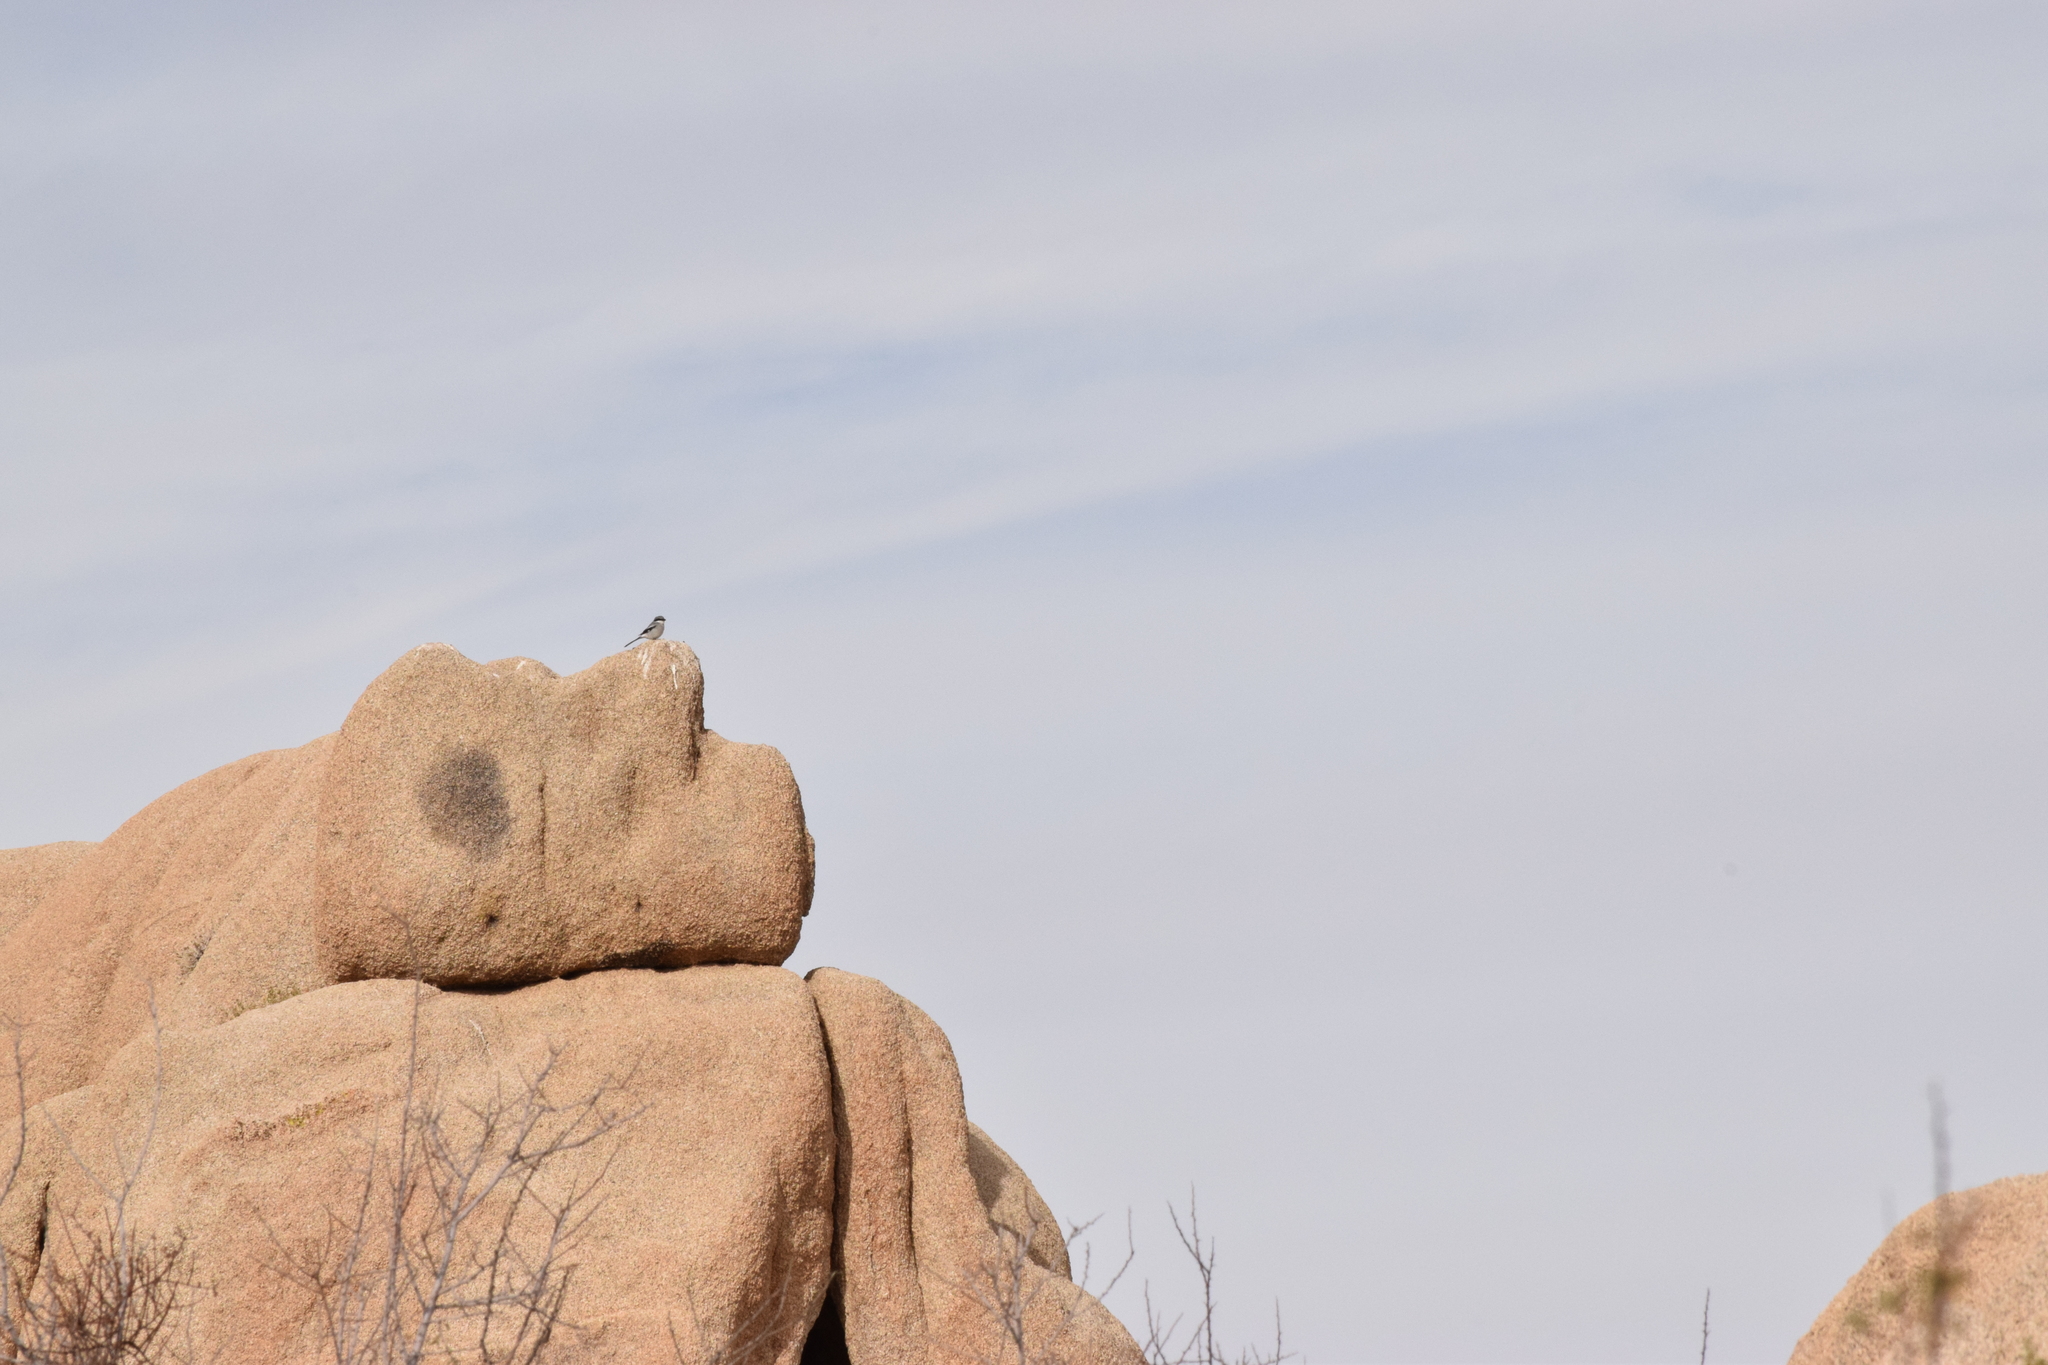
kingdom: Animalia
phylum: Chordata
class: Aves
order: Passeriformes
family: Laniidae
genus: Lanius
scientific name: Lanius ludovicianus
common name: Loggerhead shrike
